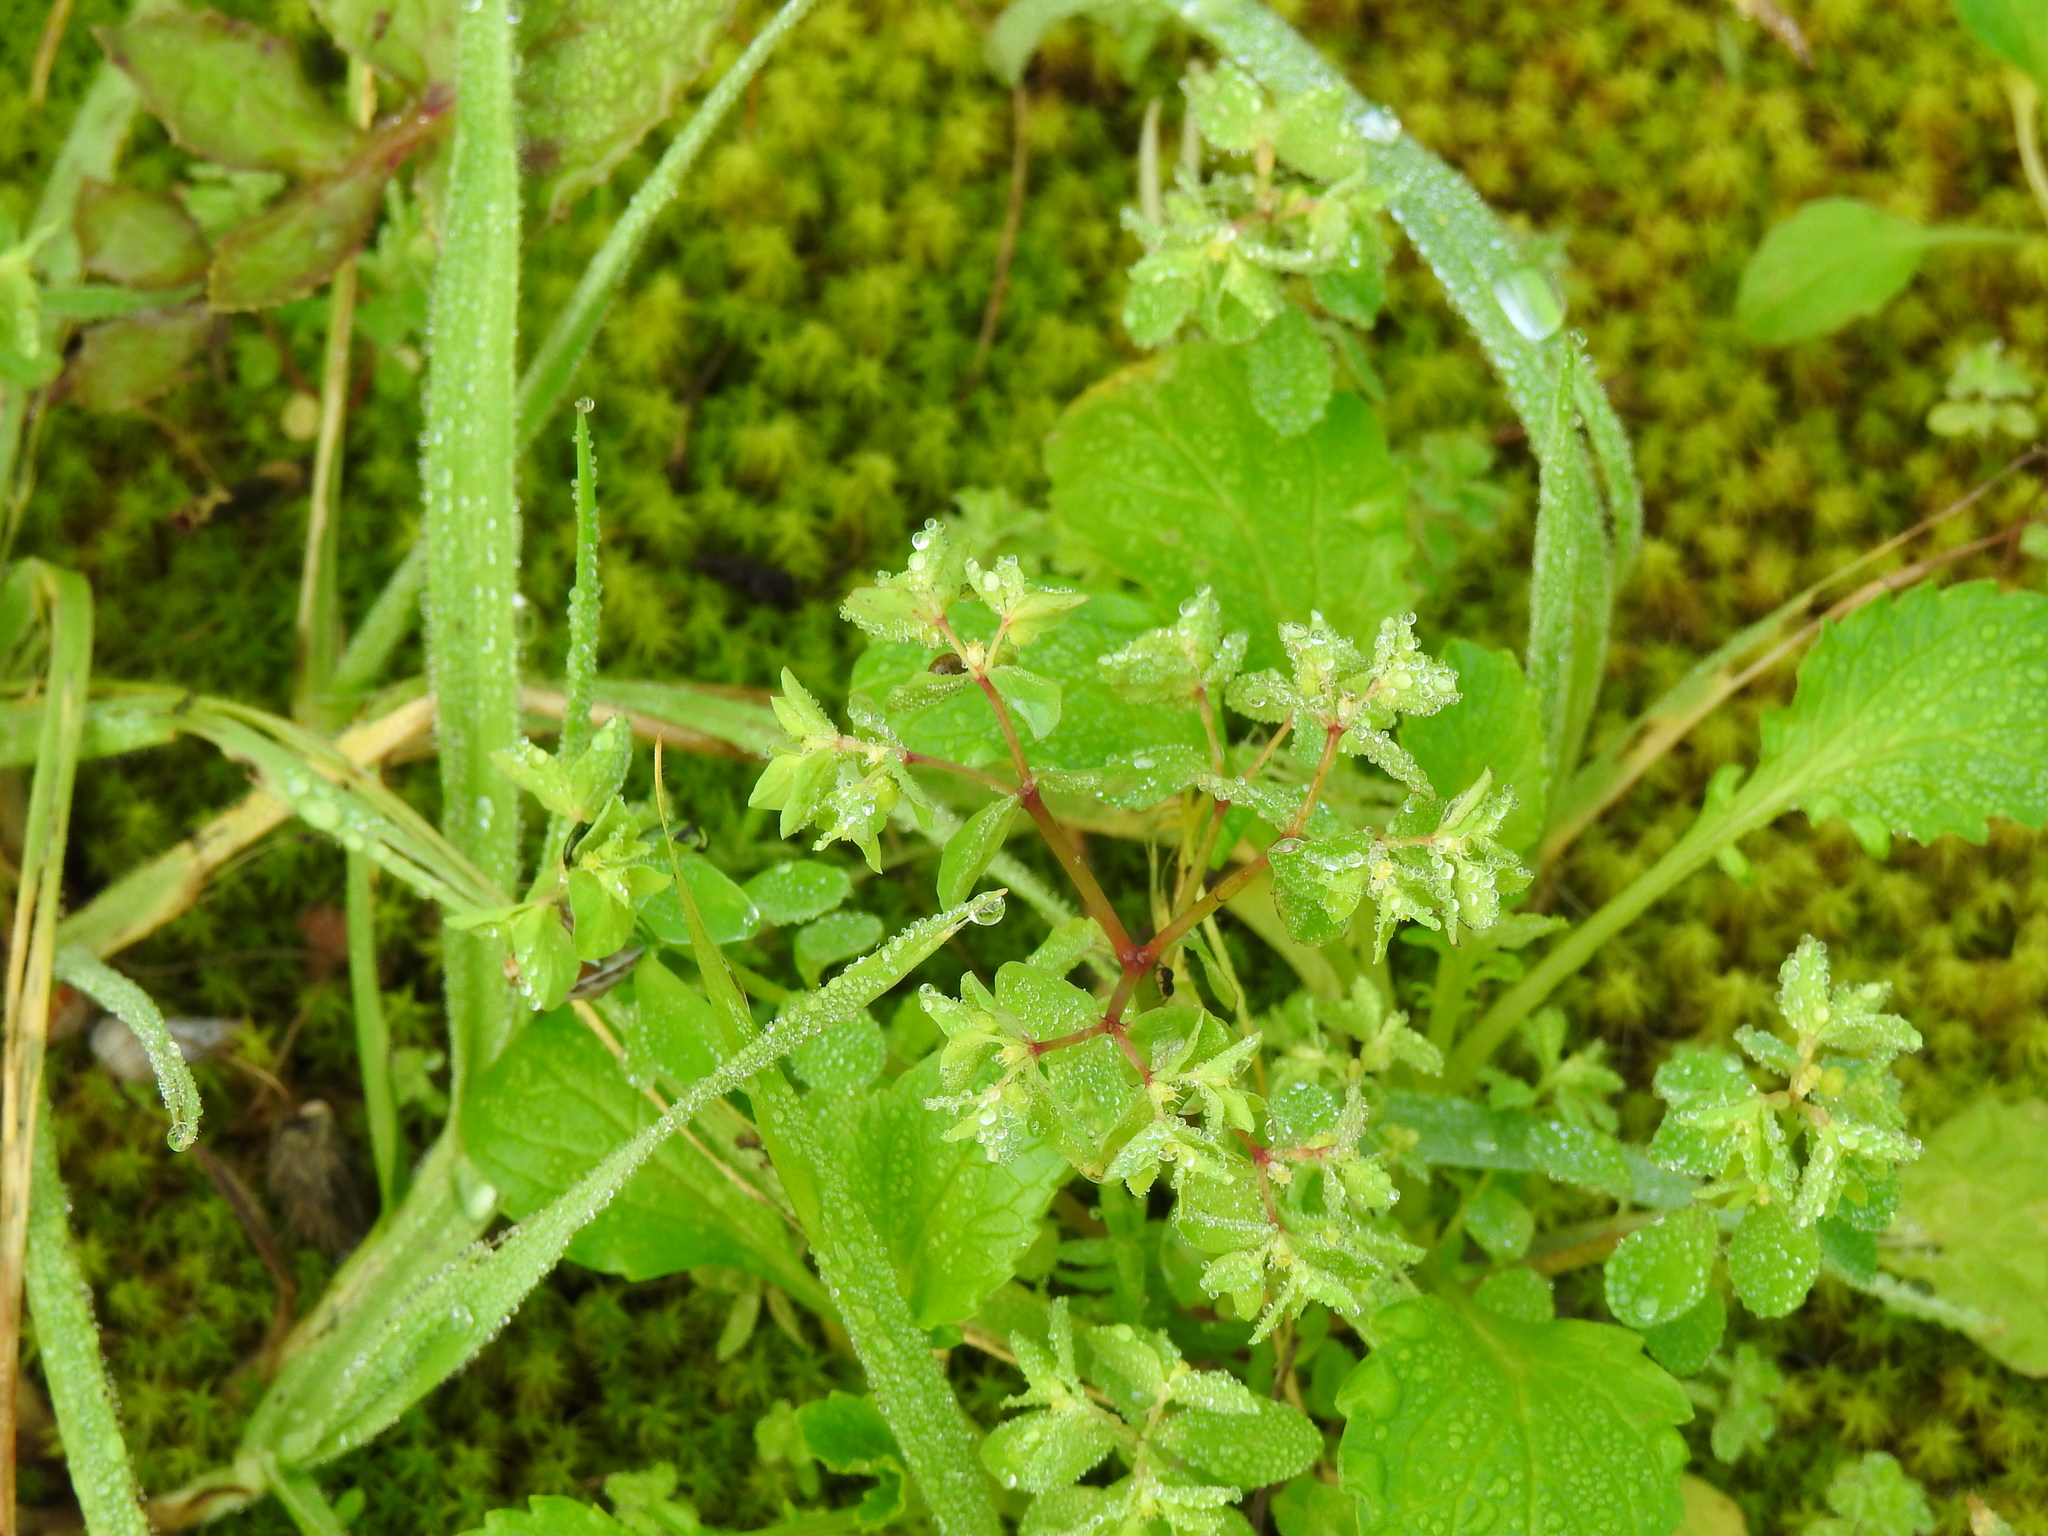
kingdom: Plantae
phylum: Tracheophyta
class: Magnoliopsida
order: Malpighiales
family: Euphorbiaceae
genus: Euphorbia
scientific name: Euphorbia peplus
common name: Petty spurge
